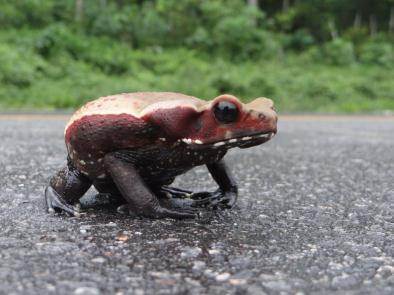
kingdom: Animalia
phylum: Chordata
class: Amphibia
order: Anura
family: Bufonidae
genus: Rhaebo
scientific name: Rhaebo guttatus
